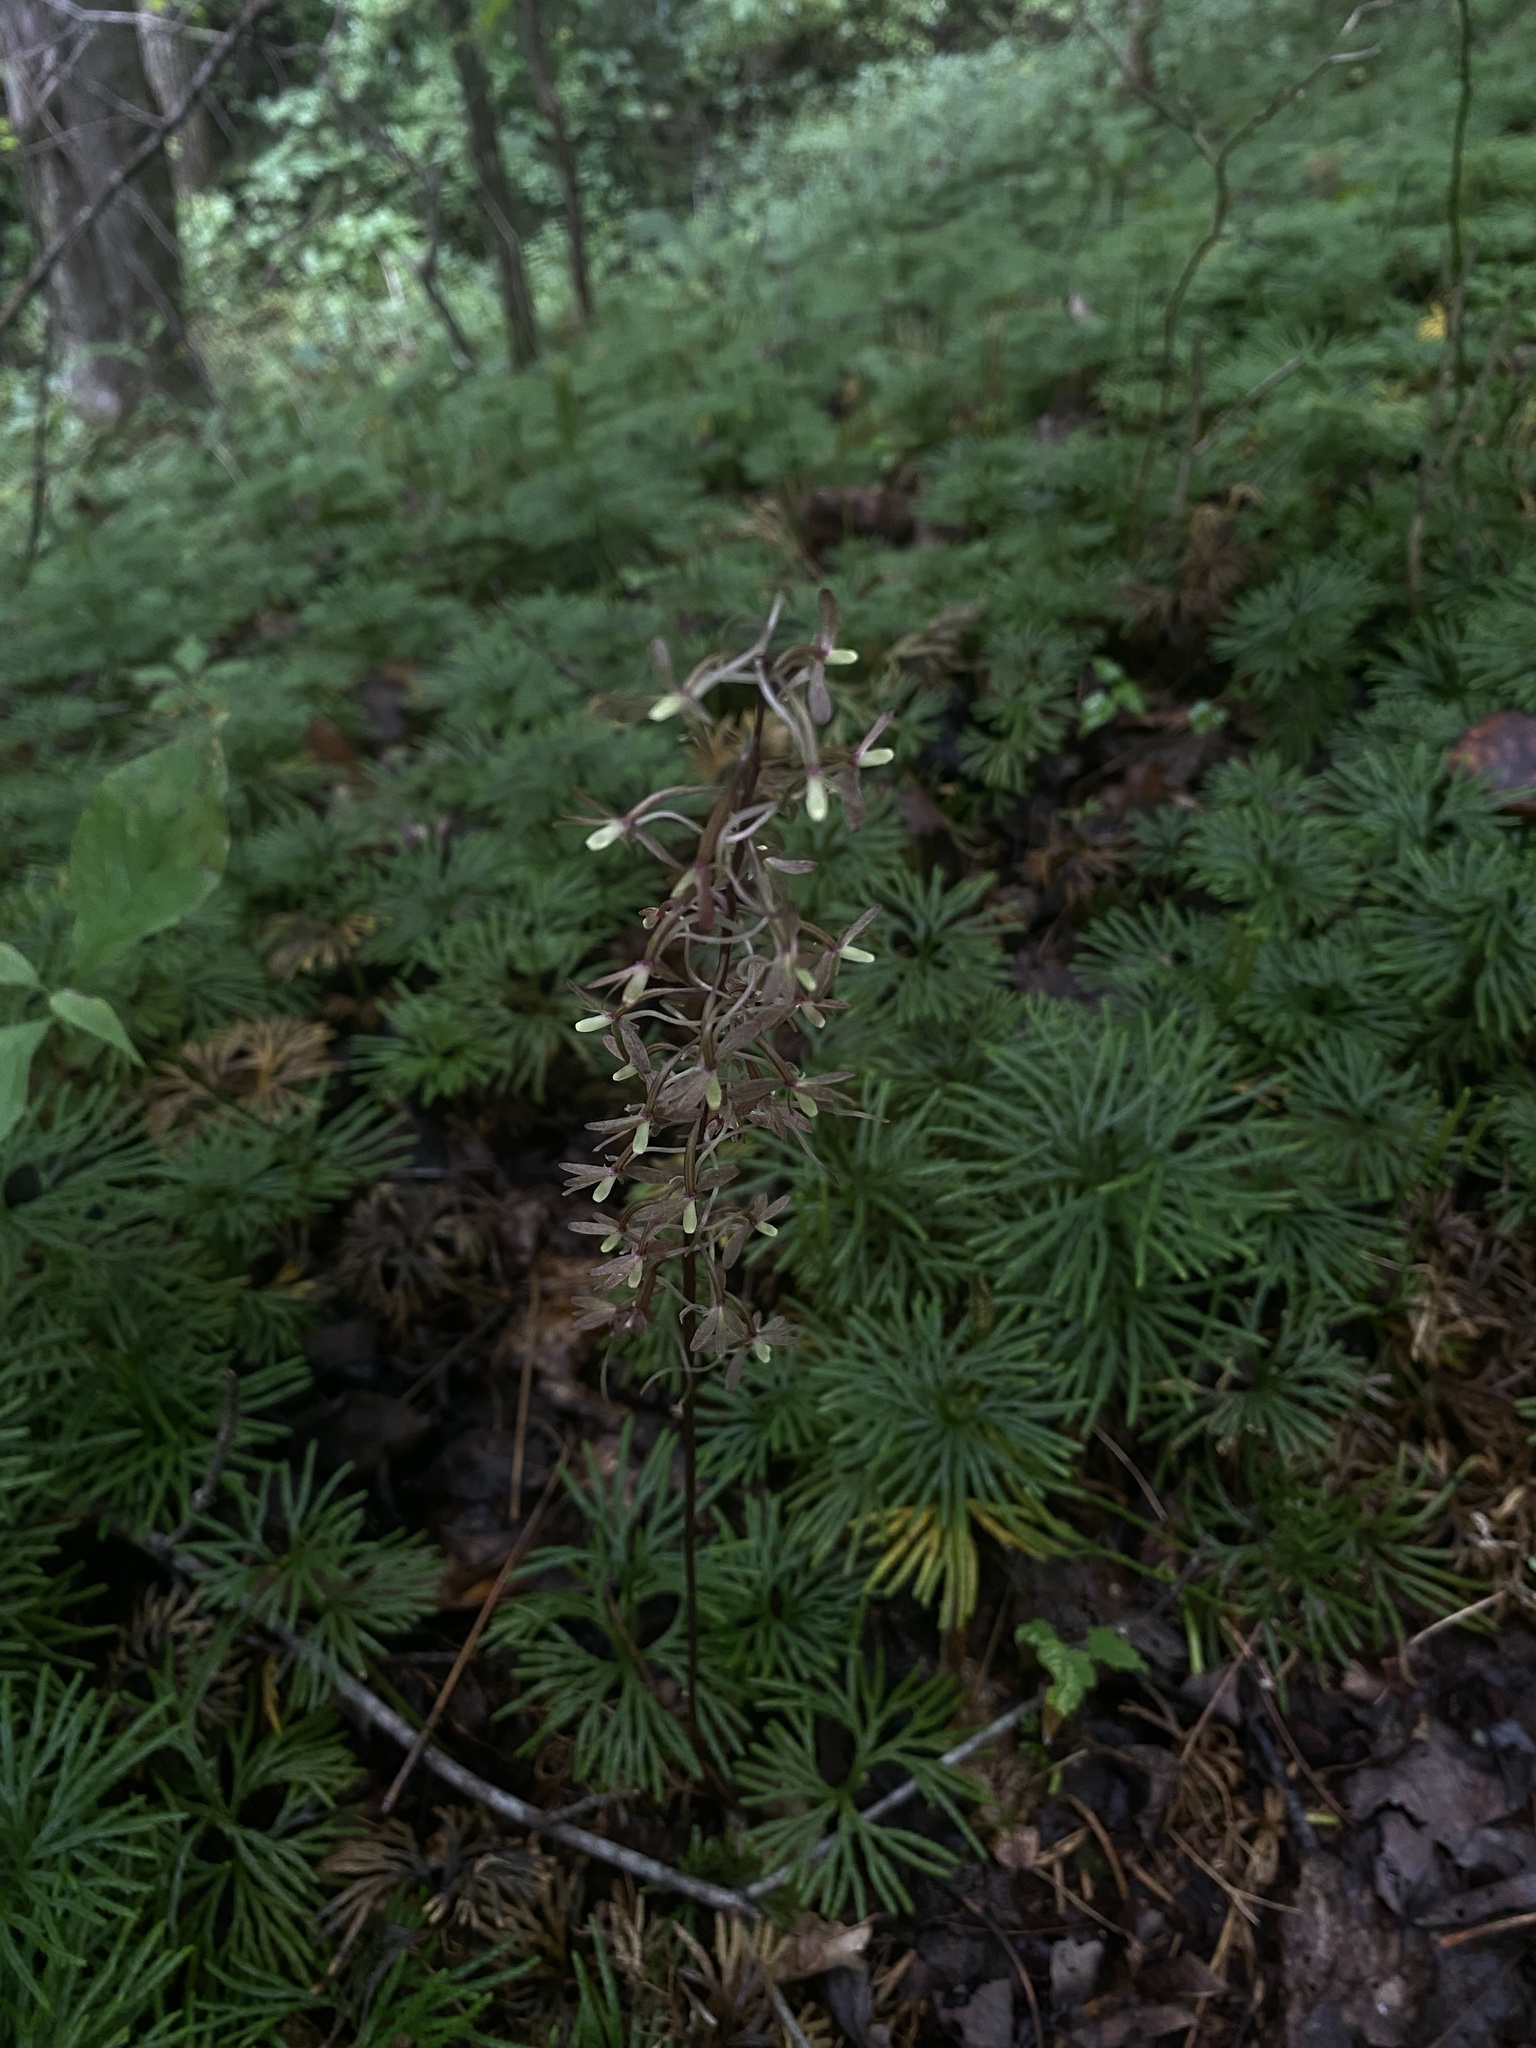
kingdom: Plantae
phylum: Tracheophyta
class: Liliopsida
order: Asparagales
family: Orchidaceae
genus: Tipularia
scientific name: Tipularia discolor
